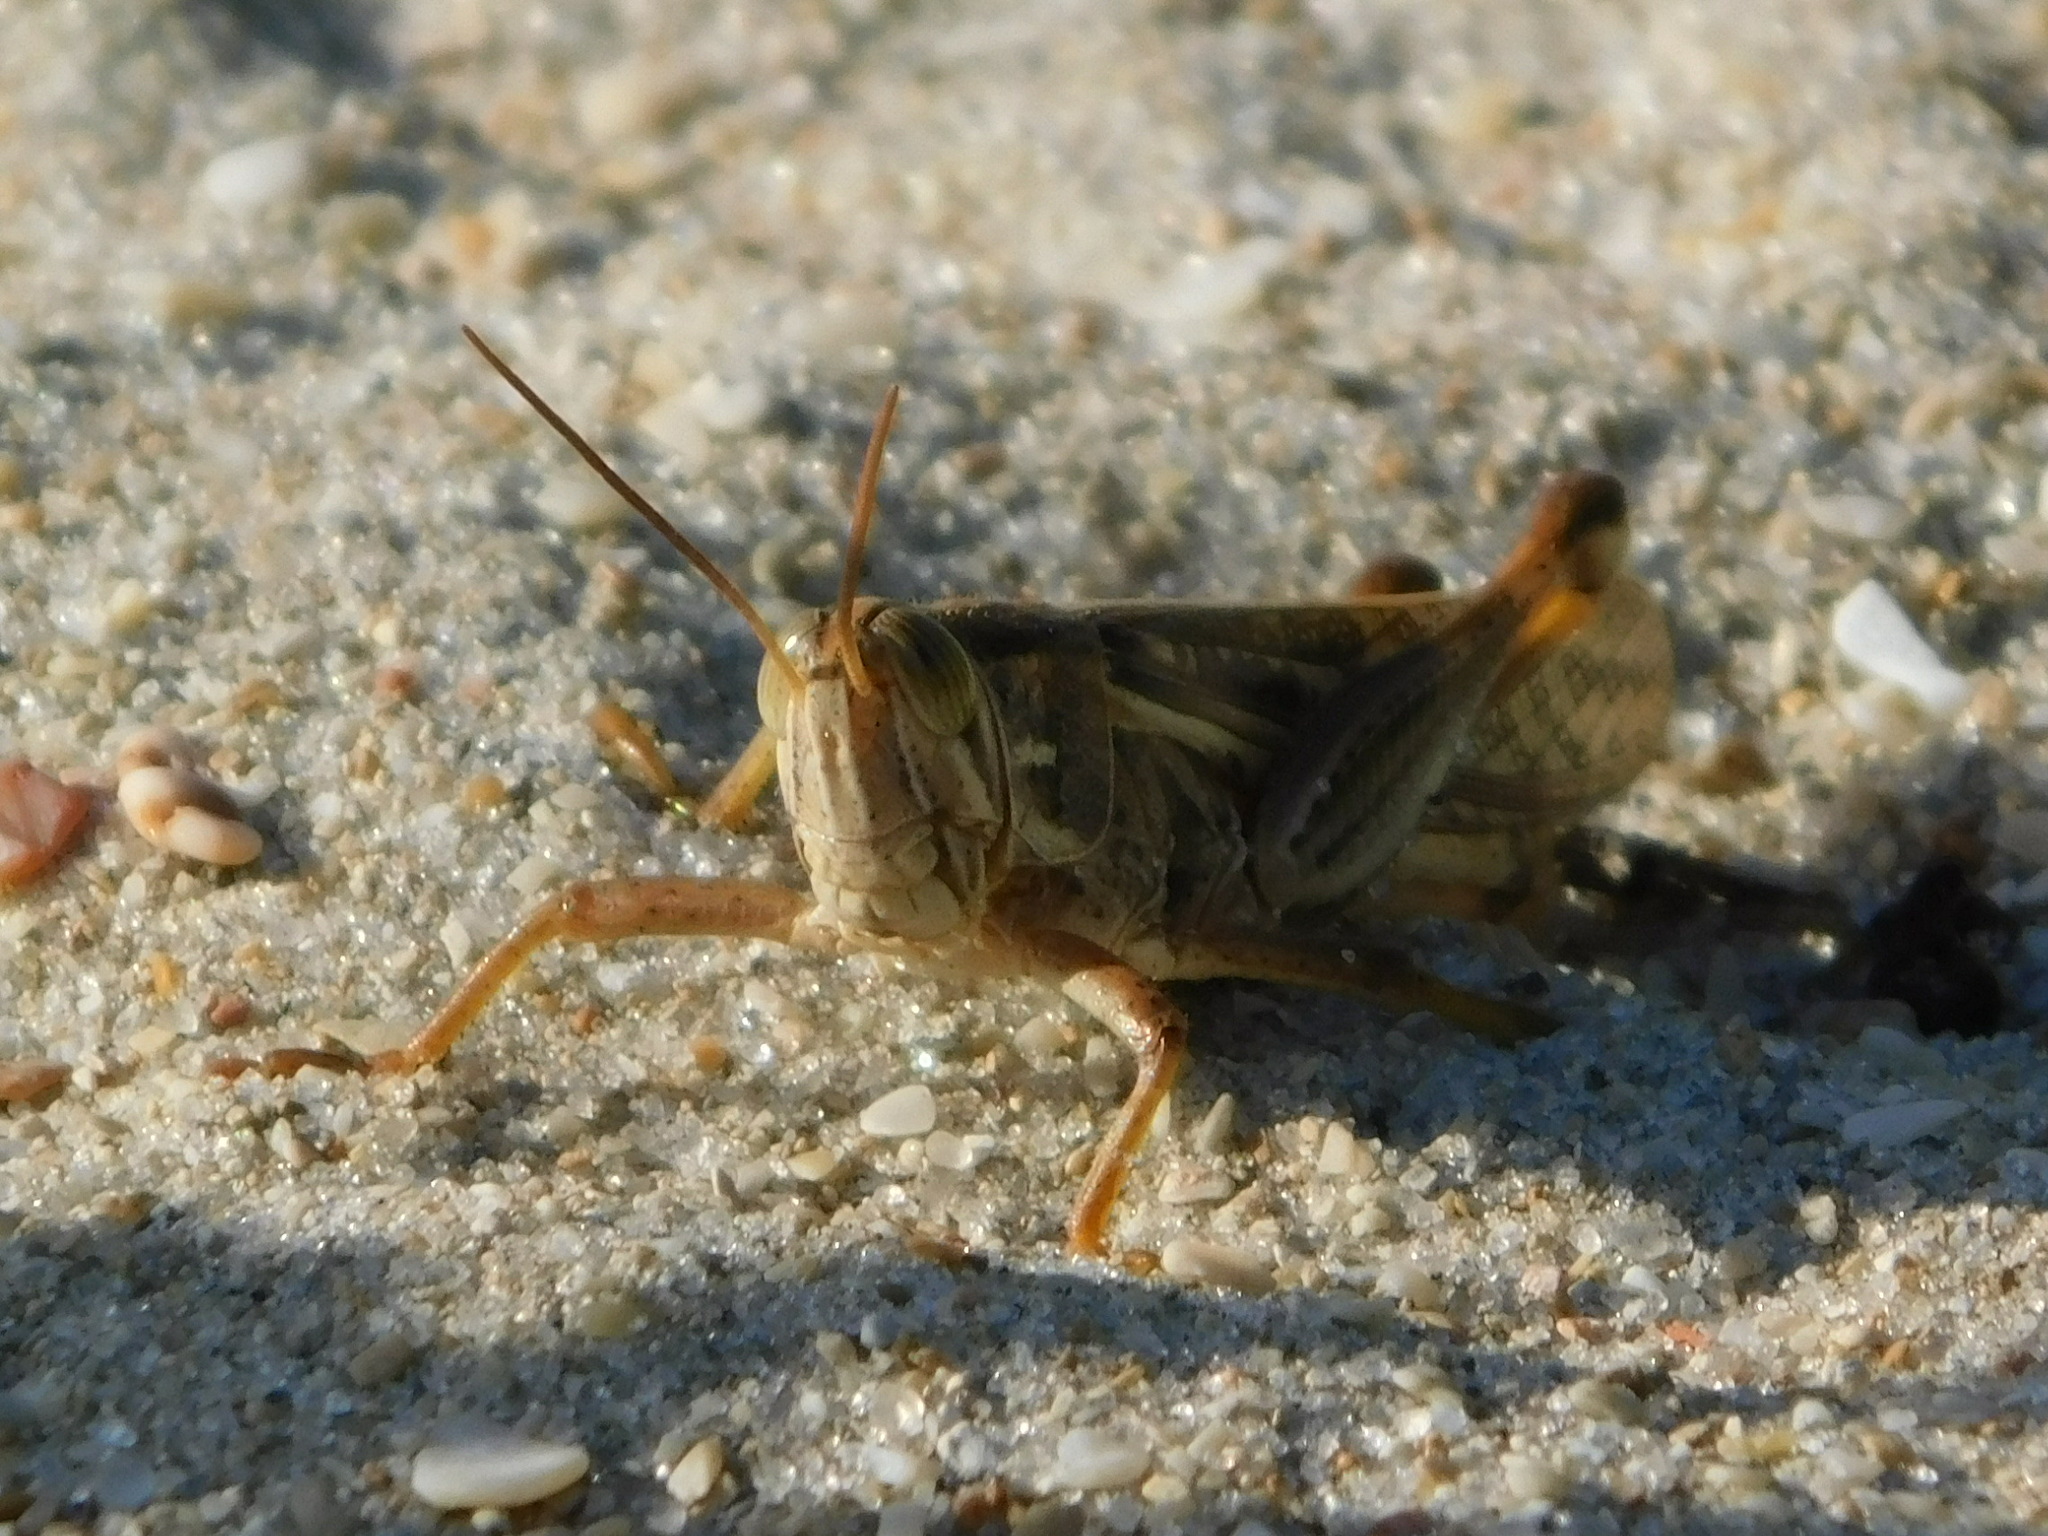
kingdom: Animalia
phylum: Arthropoda
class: Insecta
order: Orthoptera
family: Acrididae
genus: Schistocerca
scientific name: Schistocerca serialis
